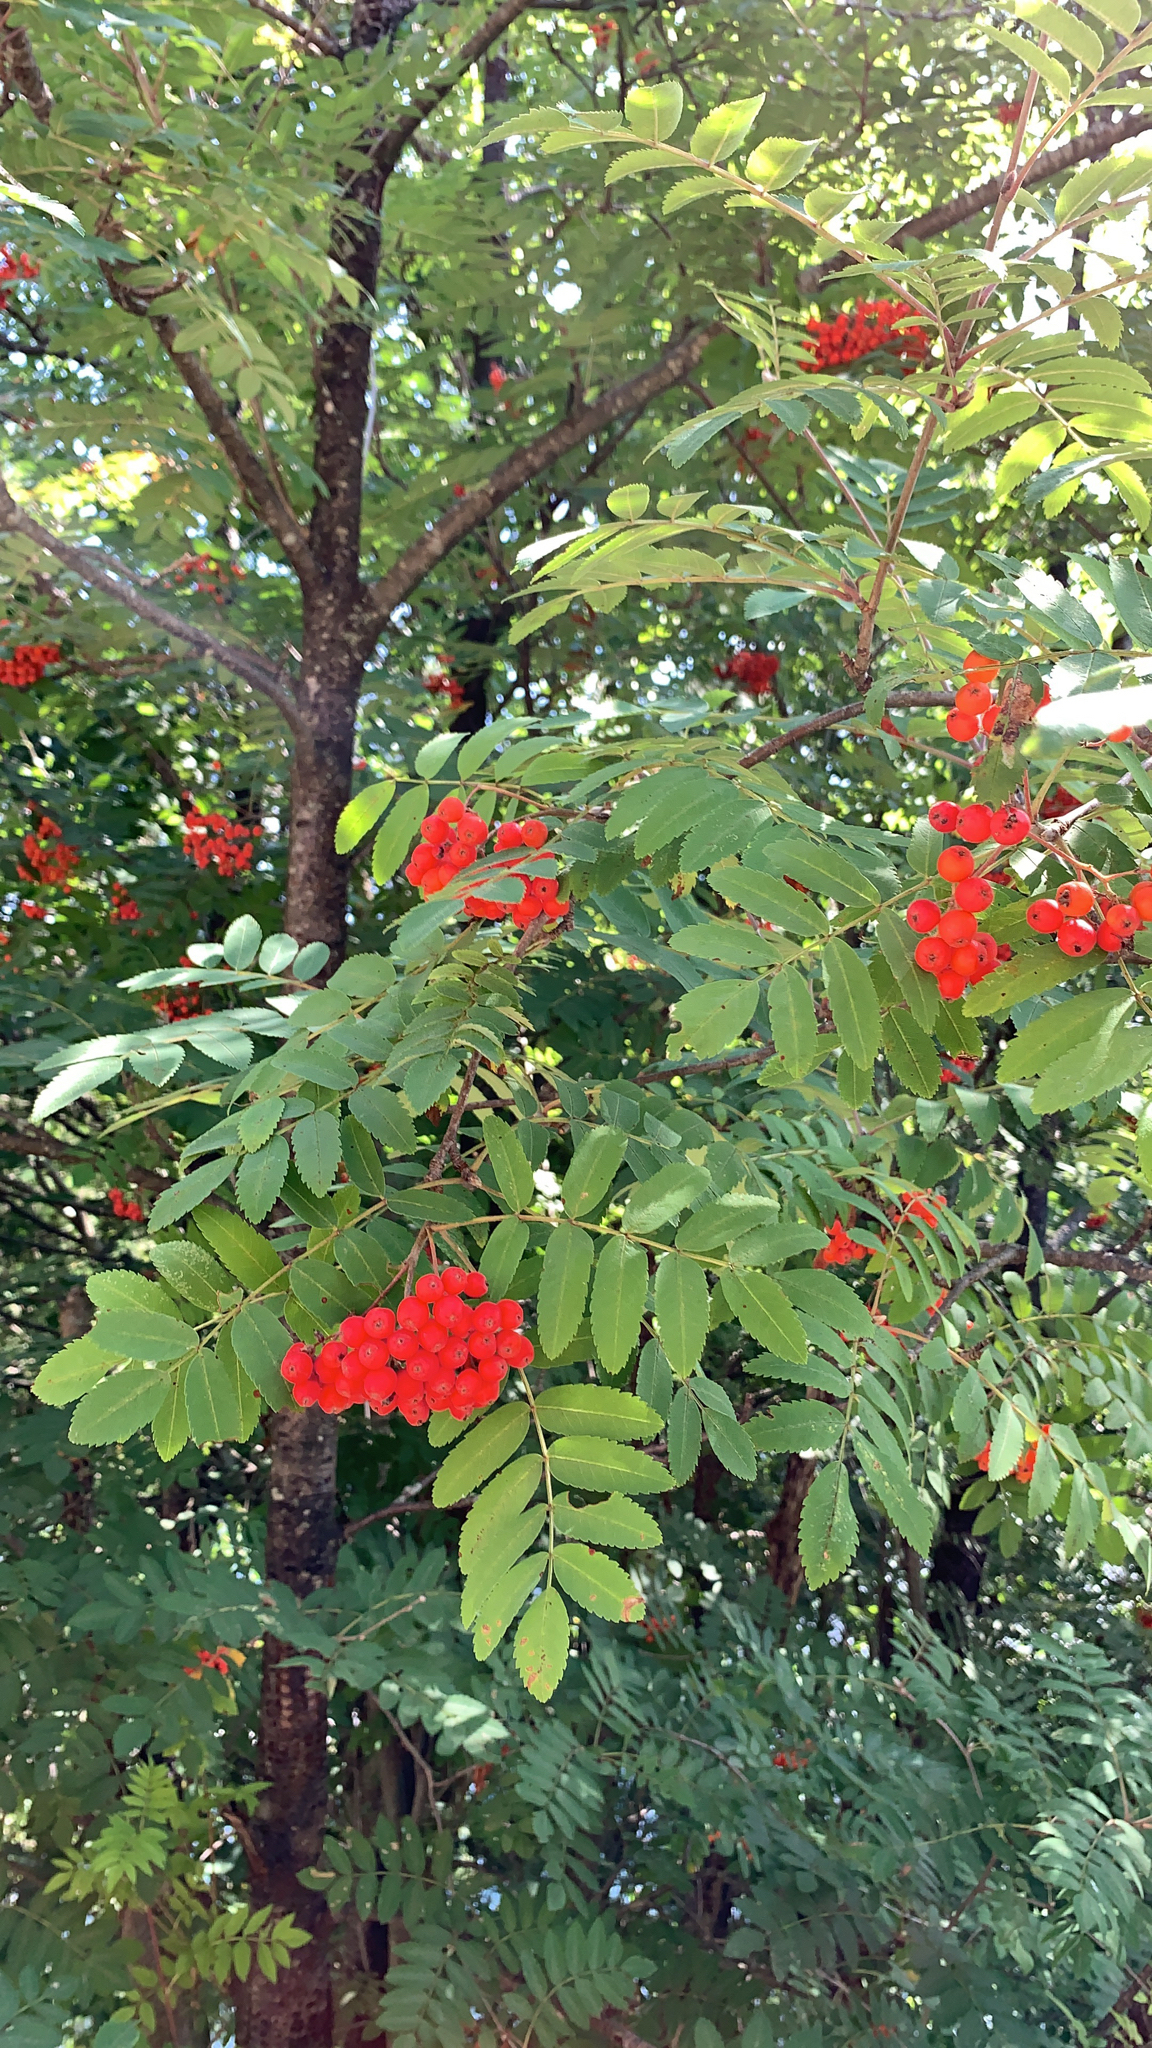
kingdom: Plantae
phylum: Tracheophyta
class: Magnoliopsida
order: Rosales
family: Rosaceae
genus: Sorbus
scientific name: Sorbus aucuparia
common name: Rowan
